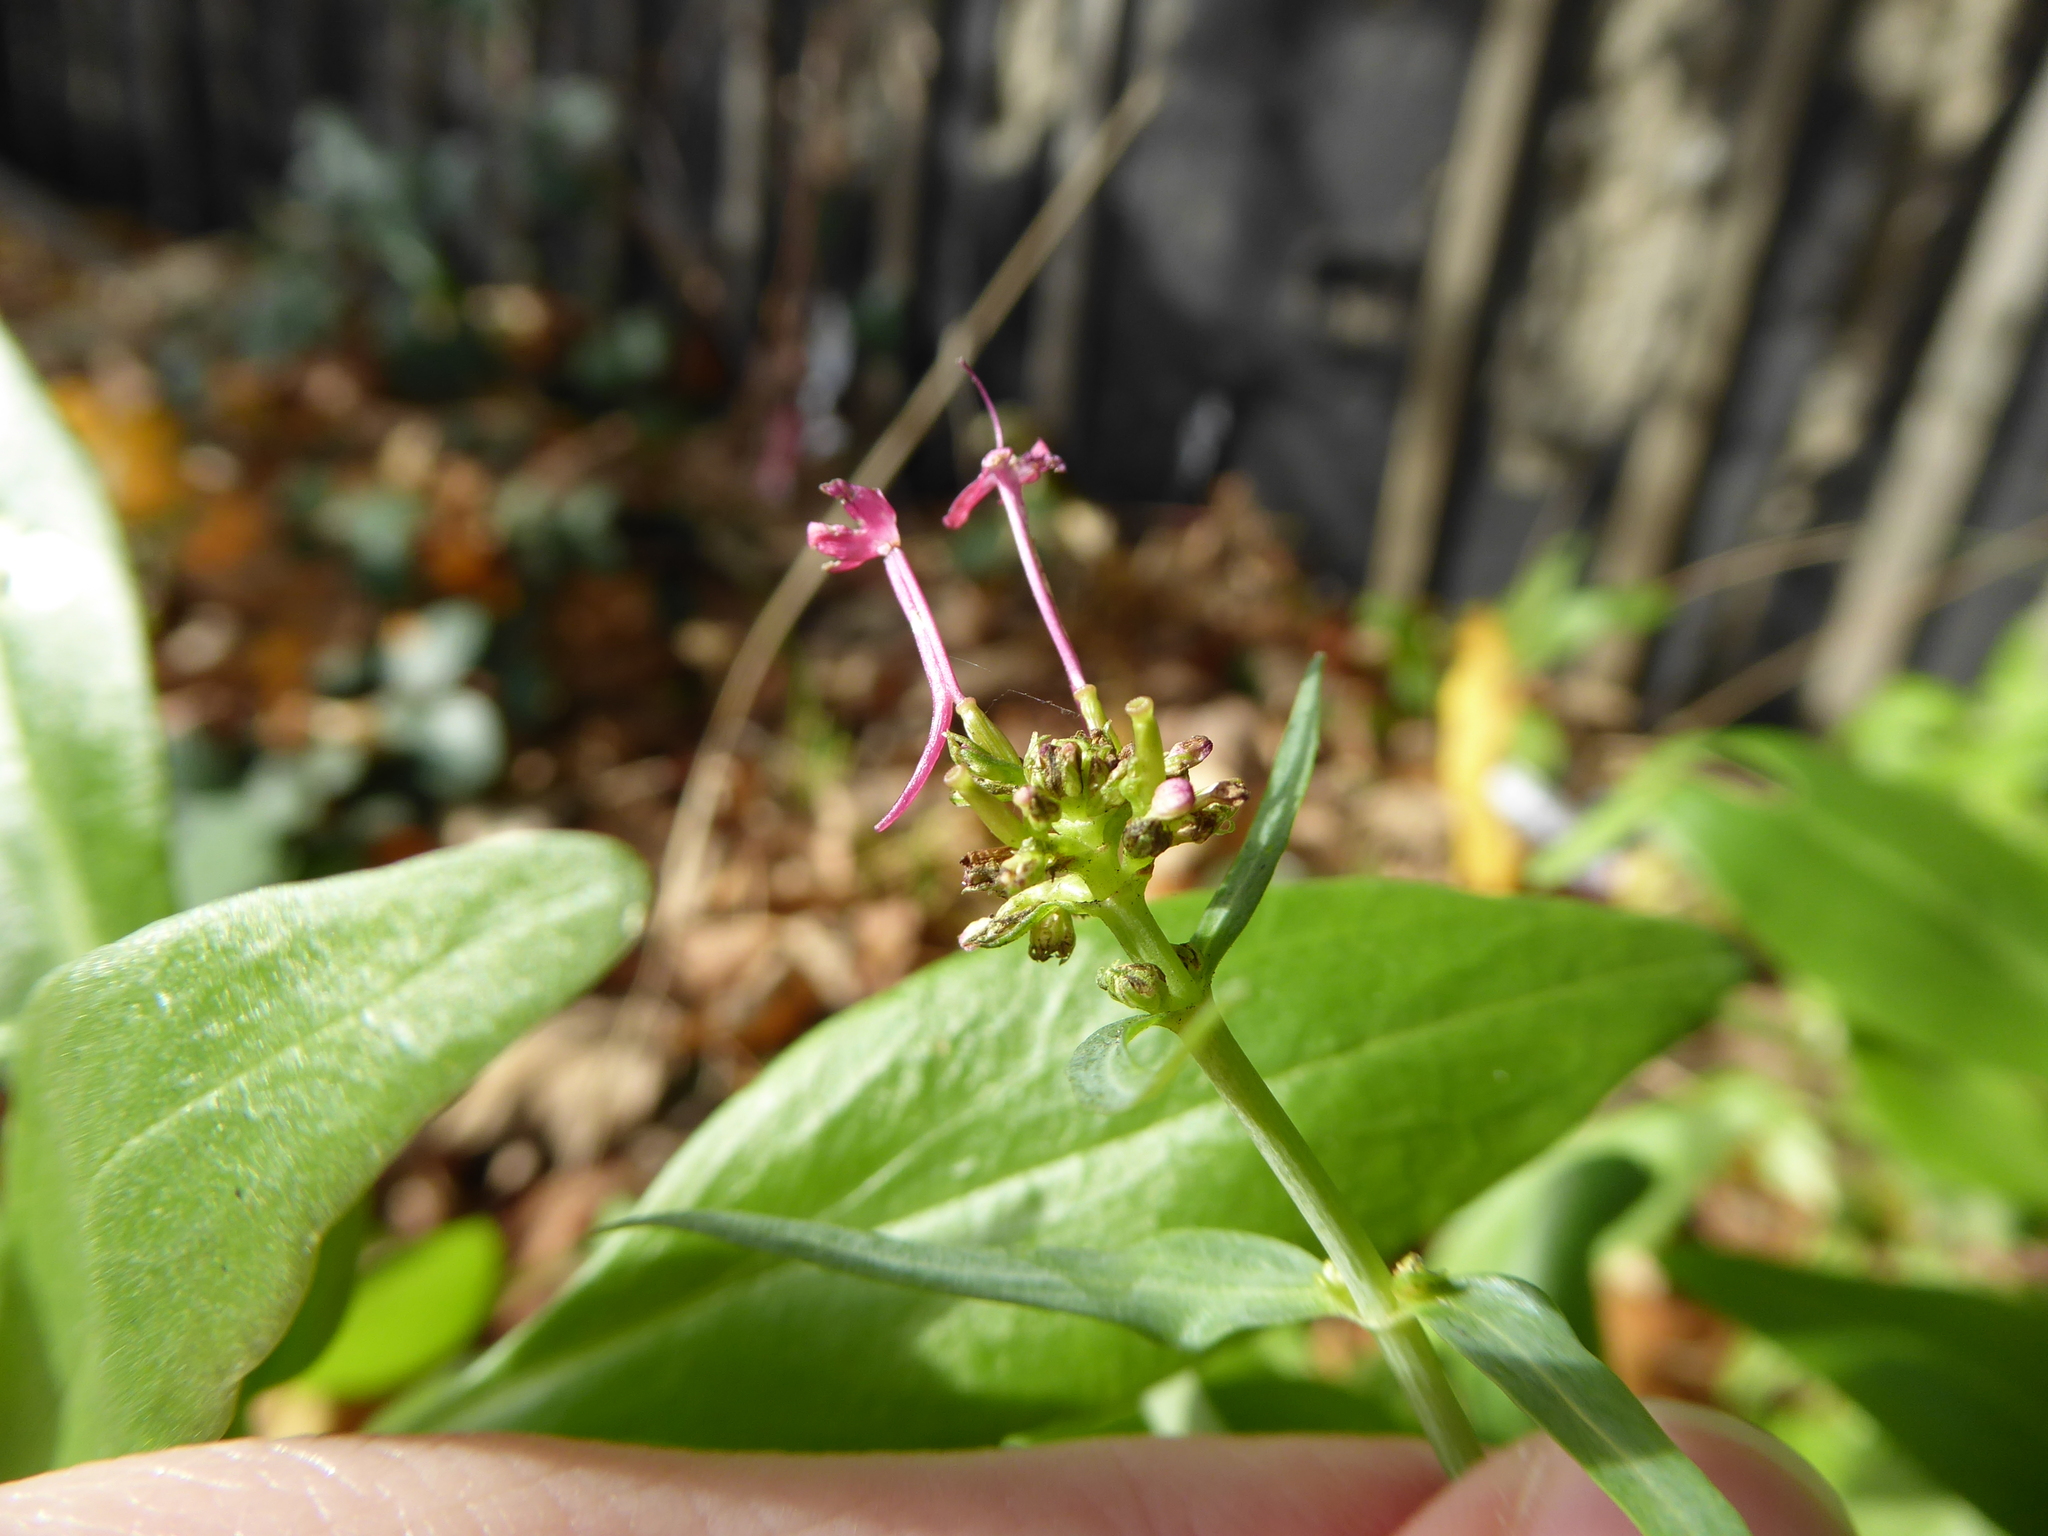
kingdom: Plantae
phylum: Tracheophyta
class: Magnoliopsida
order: Dipsacales
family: Caprifoliaceae
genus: Centranthus
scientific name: Centranthus ruber
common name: Red valerian
